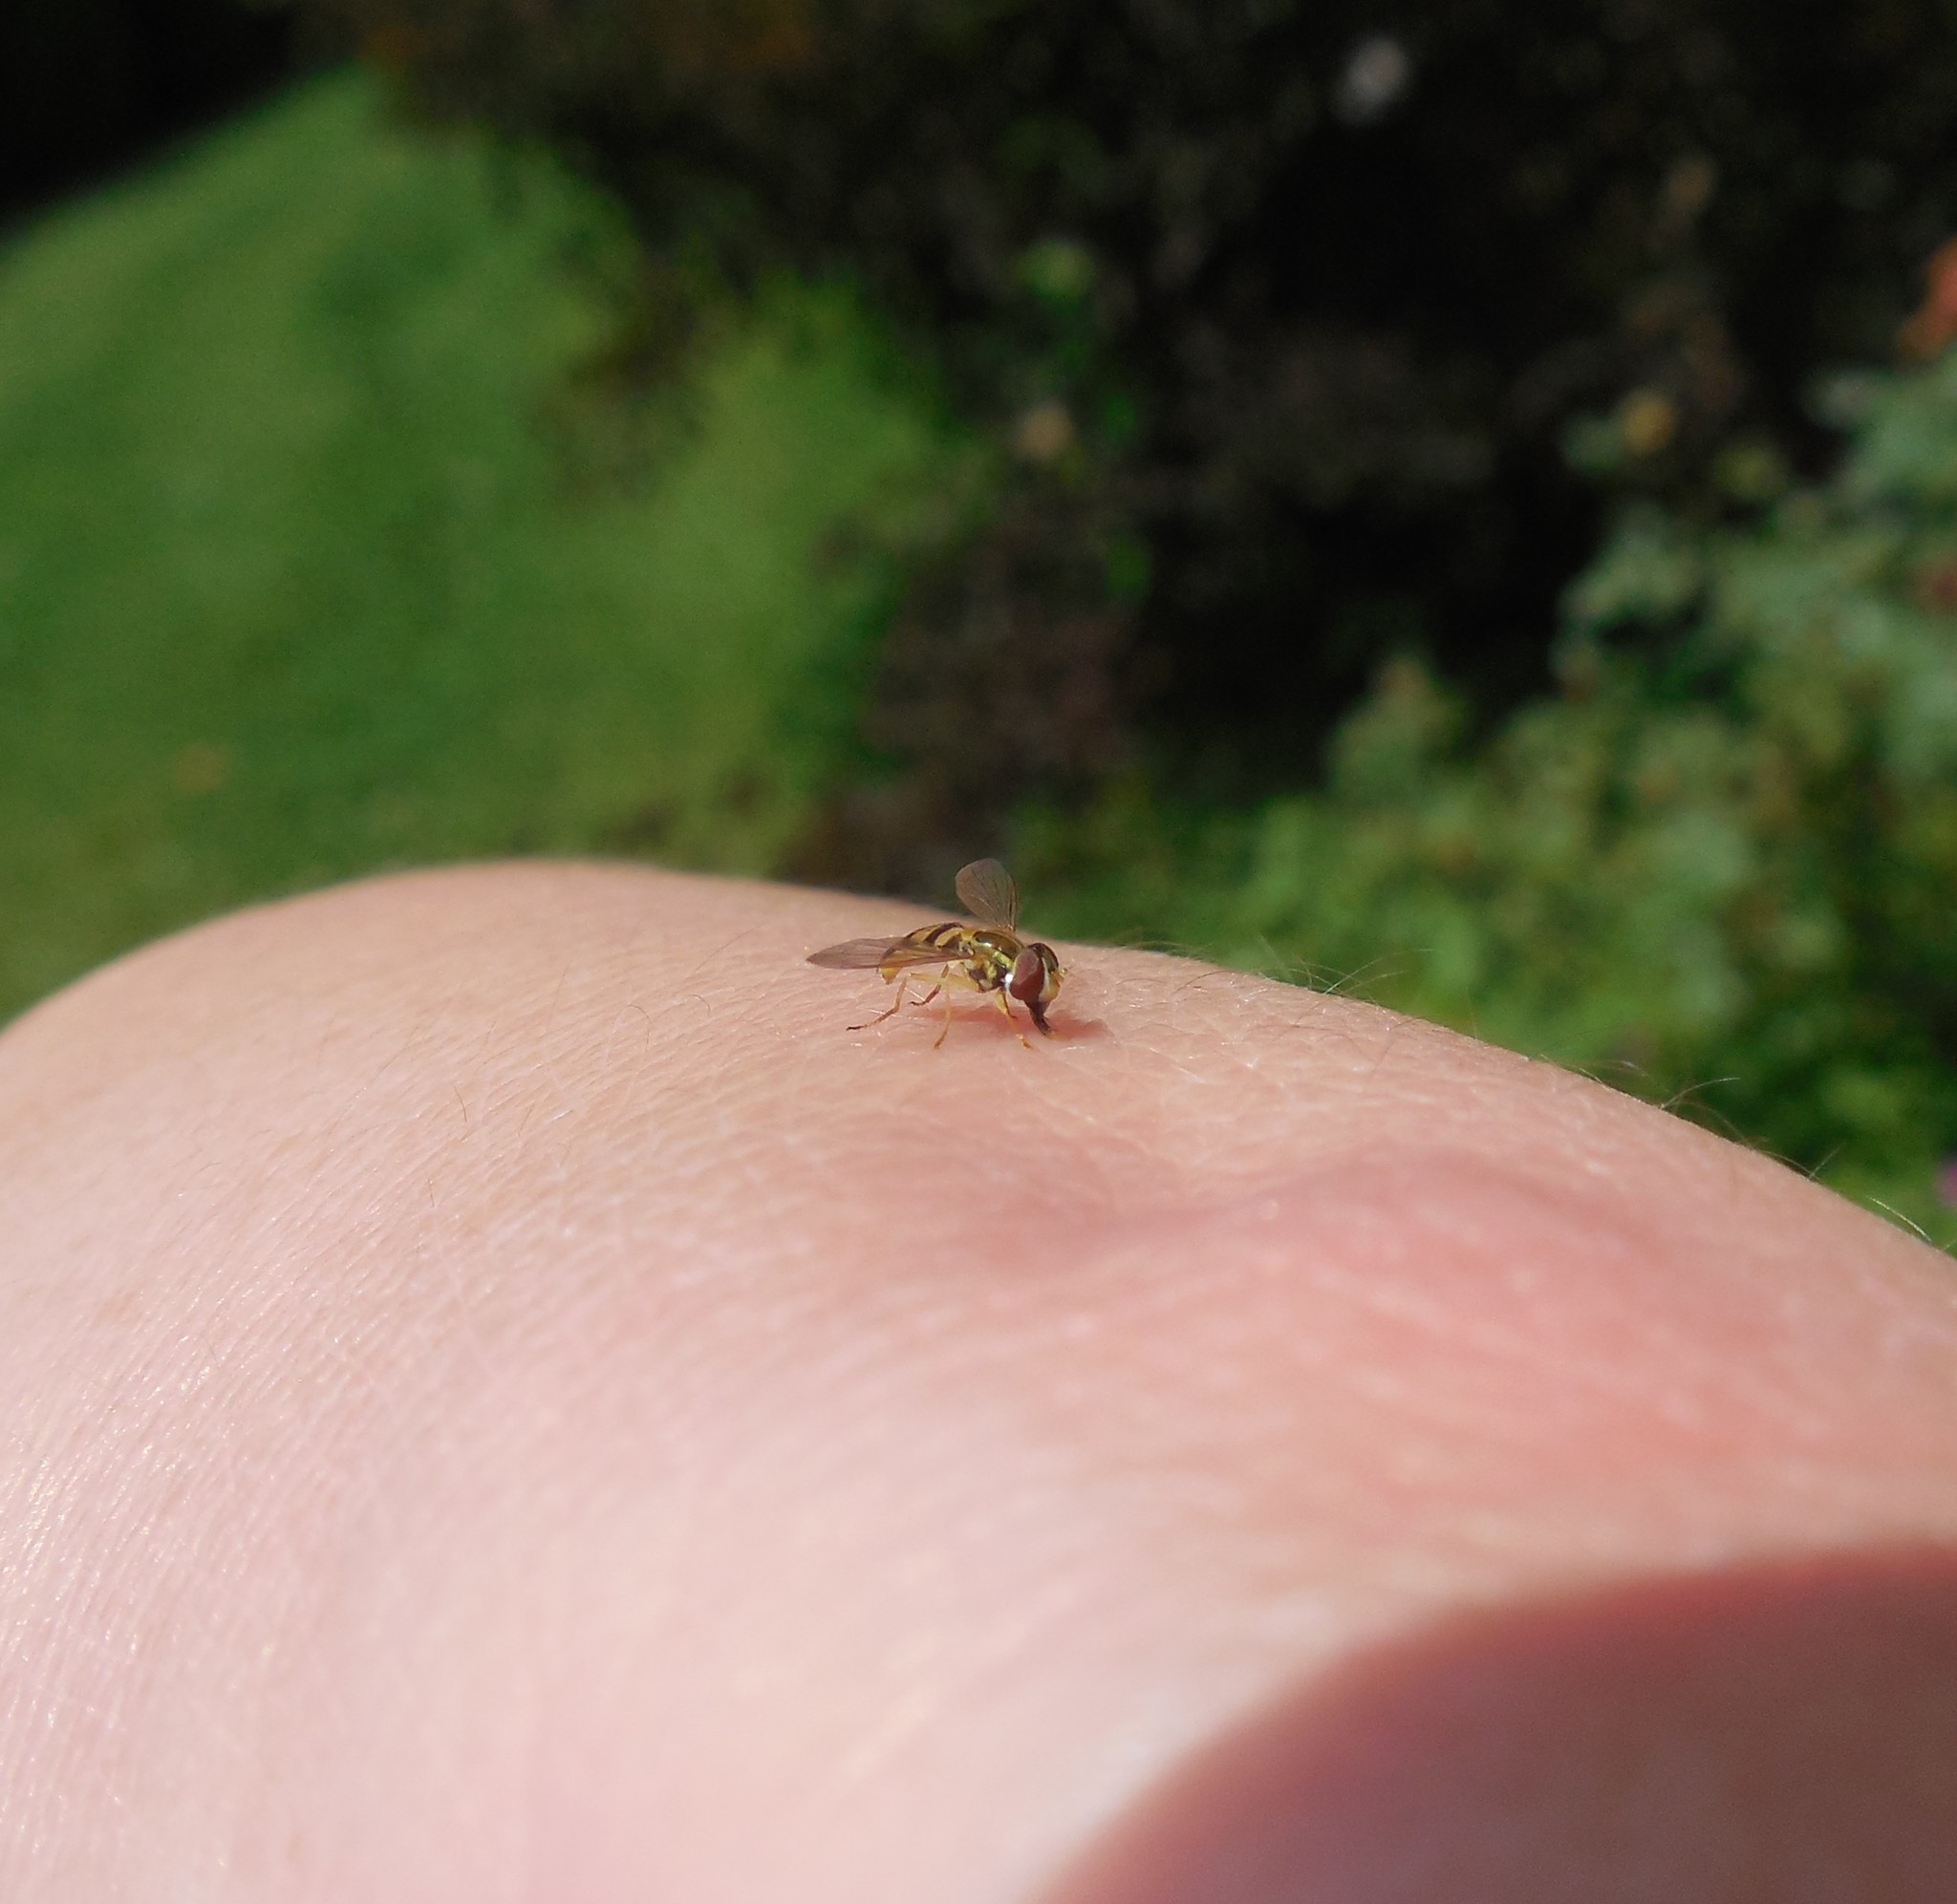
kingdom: Animalia
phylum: Arthropoda
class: Insecta
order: Diptera
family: Syrphidae
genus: Toxomerus
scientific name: Toxomerus marginatus
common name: Syrphid fly
